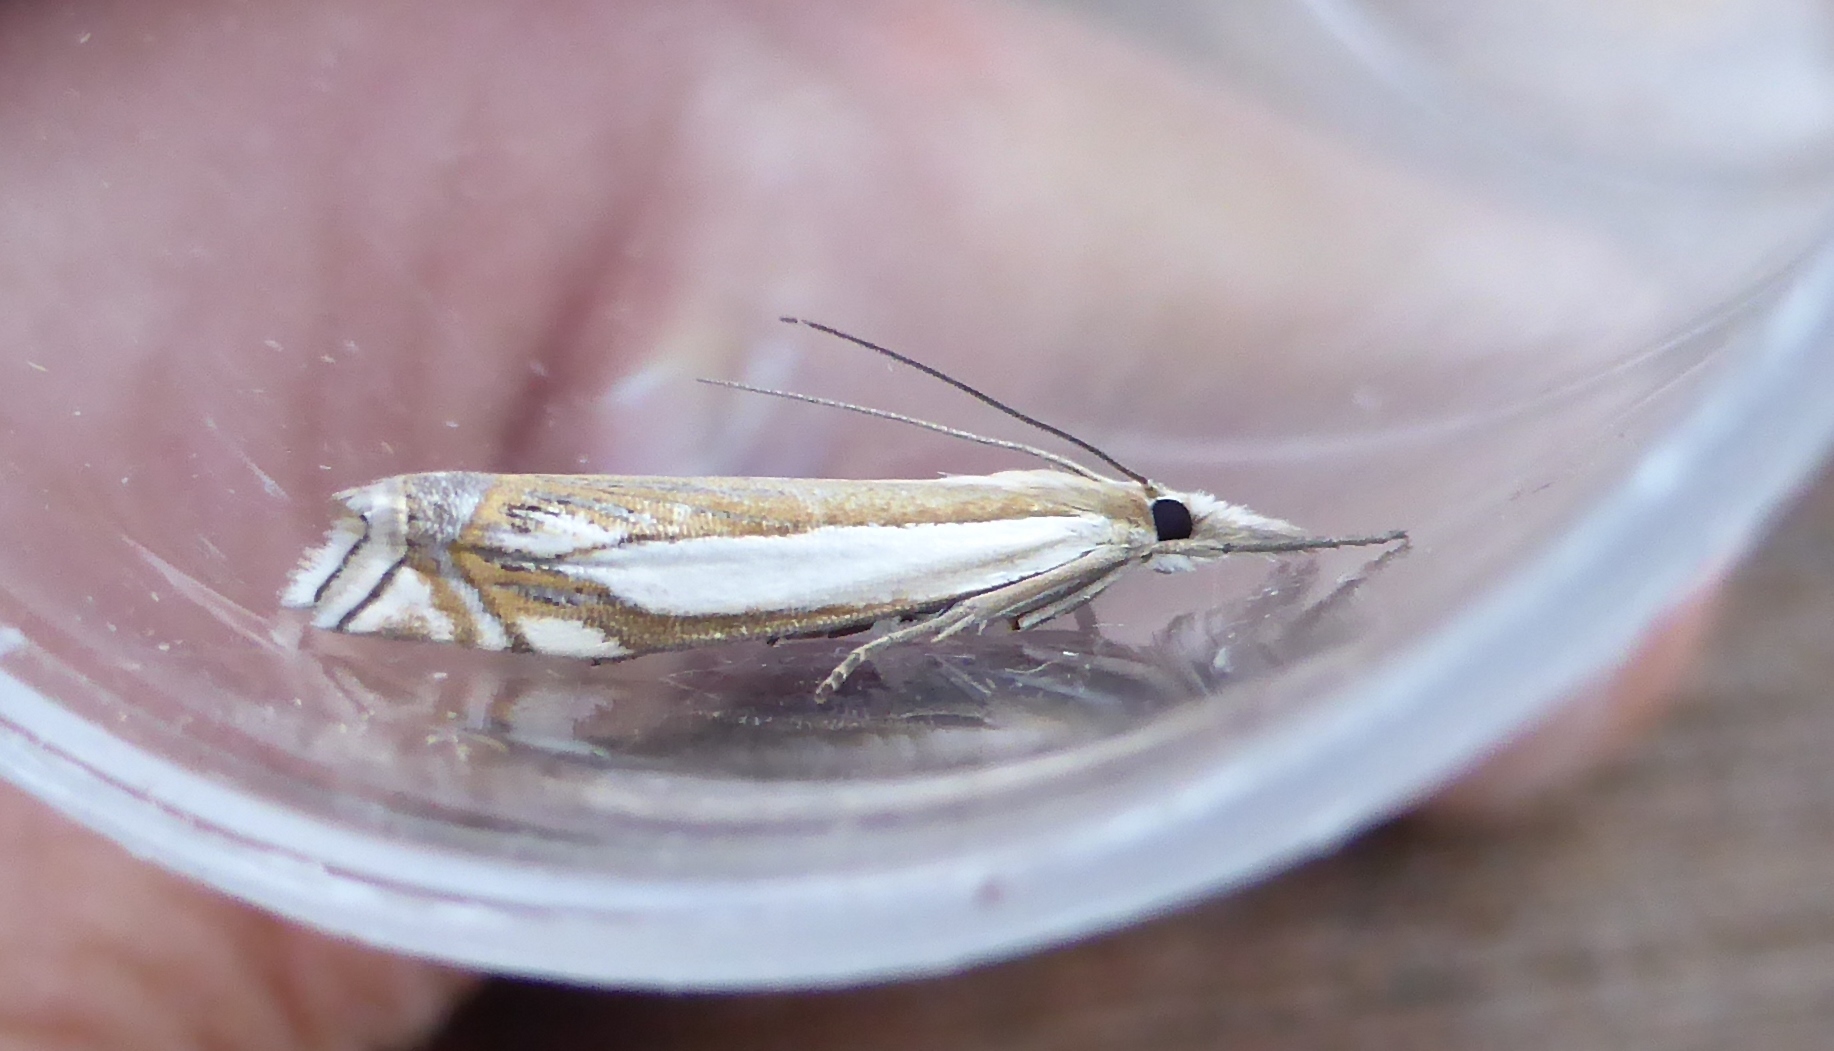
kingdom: Animalia
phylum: Arthropoda
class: Insecta
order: Lepidoptera
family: Crambidae
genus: Crambus
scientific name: Crambus pascuella
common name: Inlaid grass-veneer
